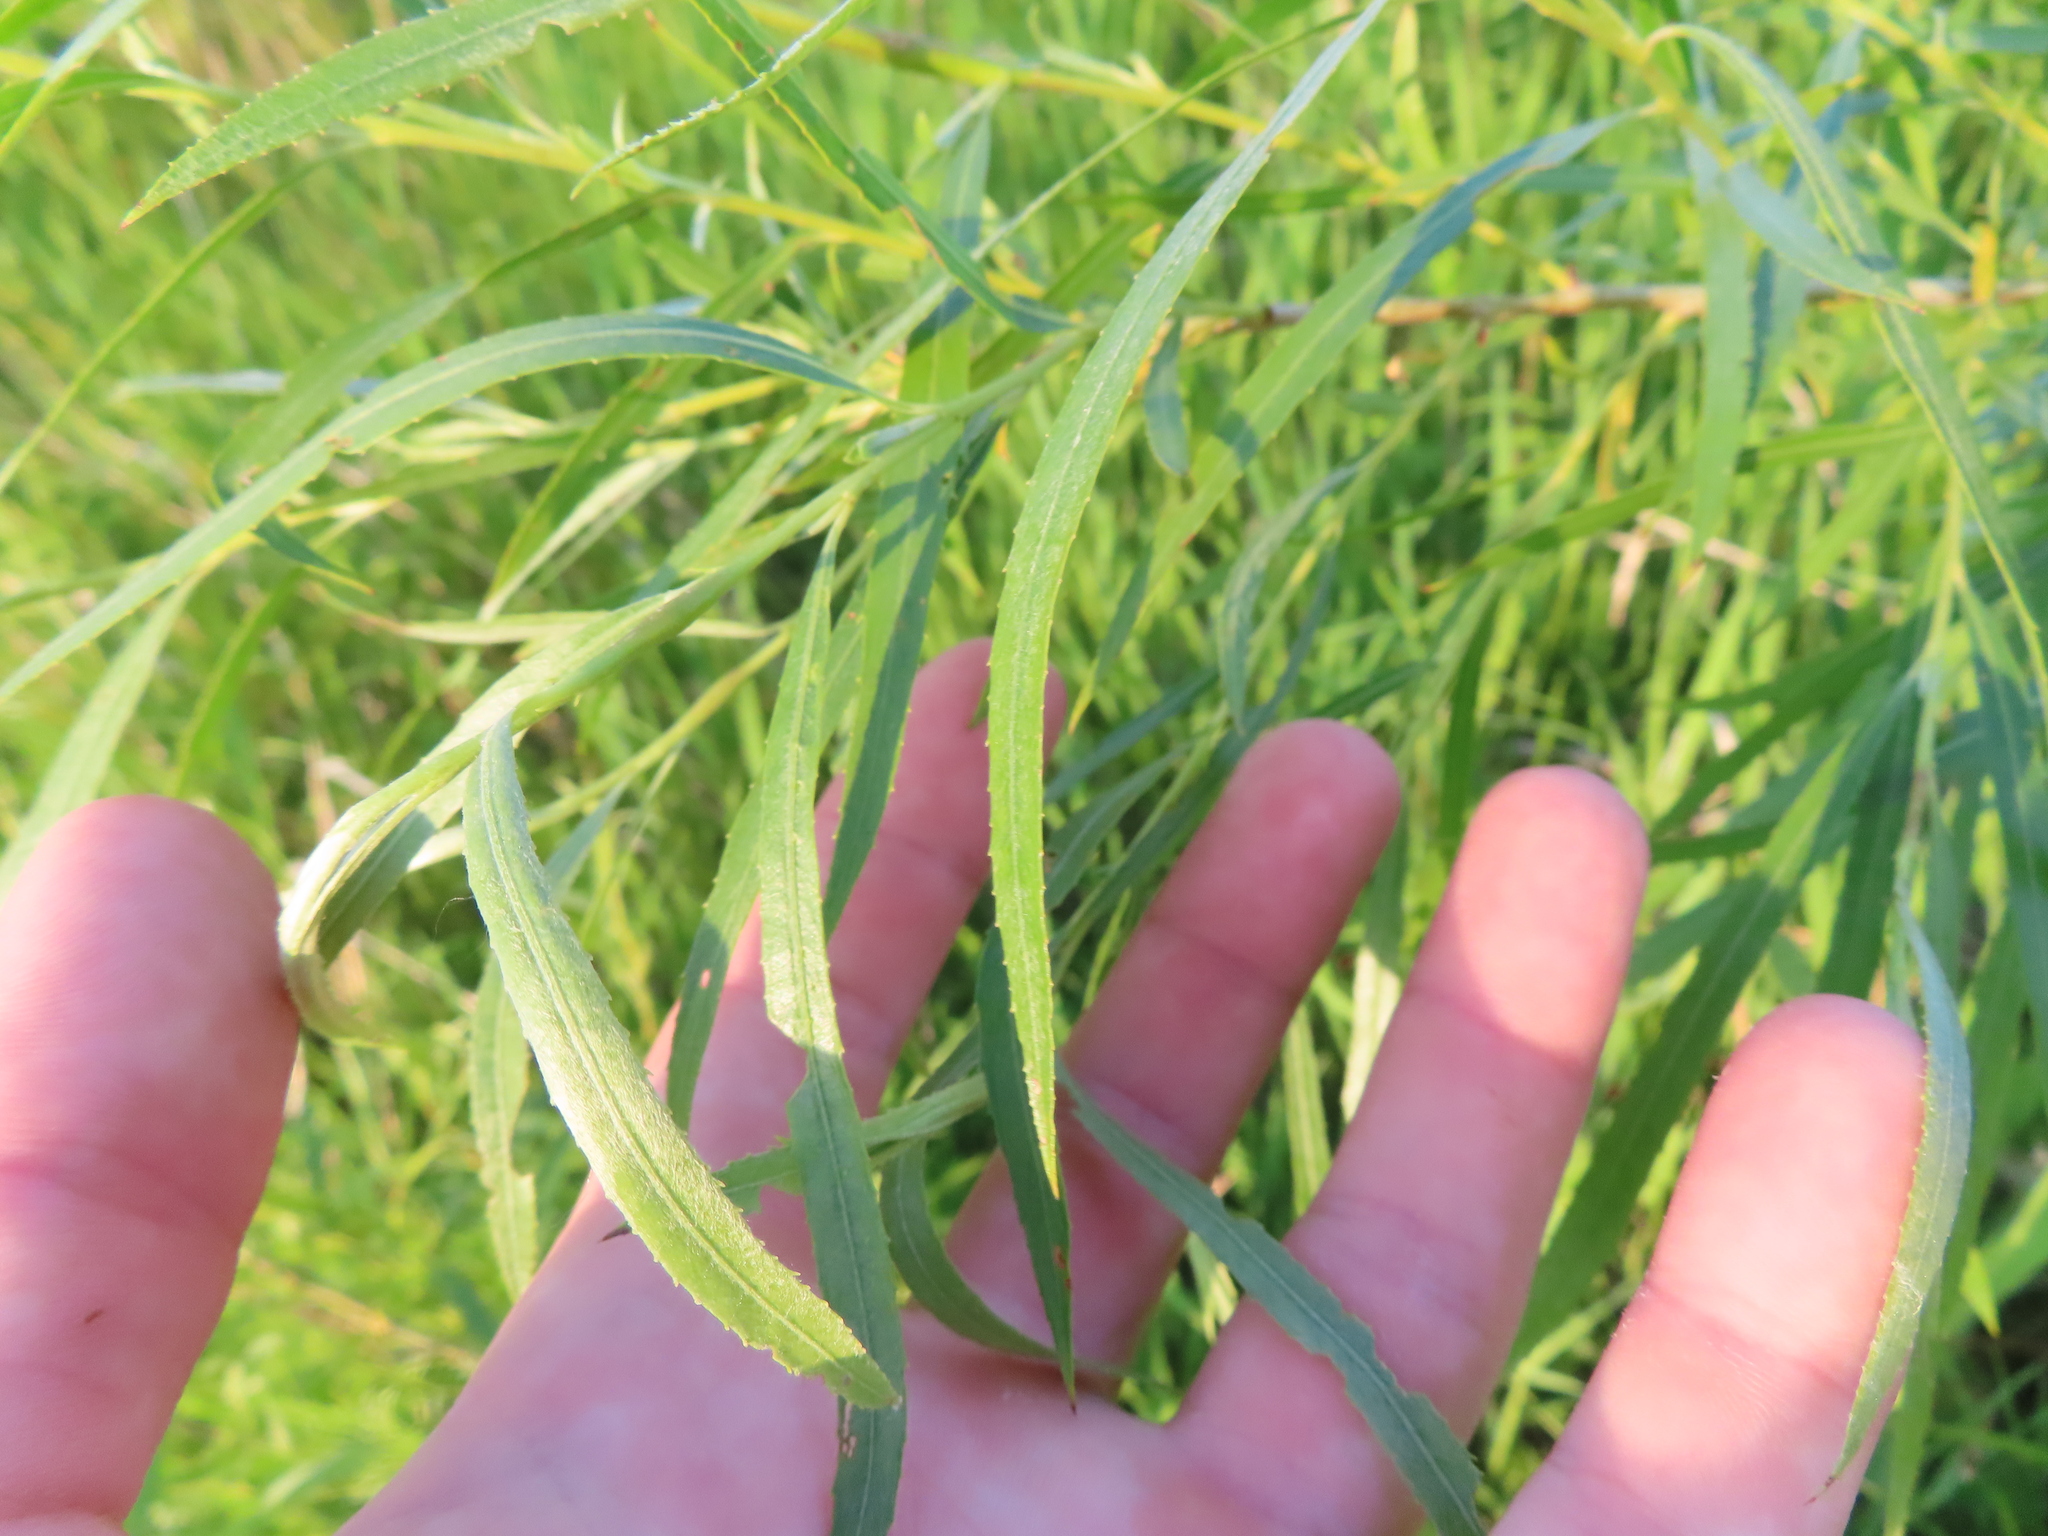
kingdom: Plantae
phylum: Tracheophyta
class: Magnoliopsida
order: Malpighiales
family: Salicaceae
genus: Salix
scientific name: Salix interior
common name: Sandbar willow
